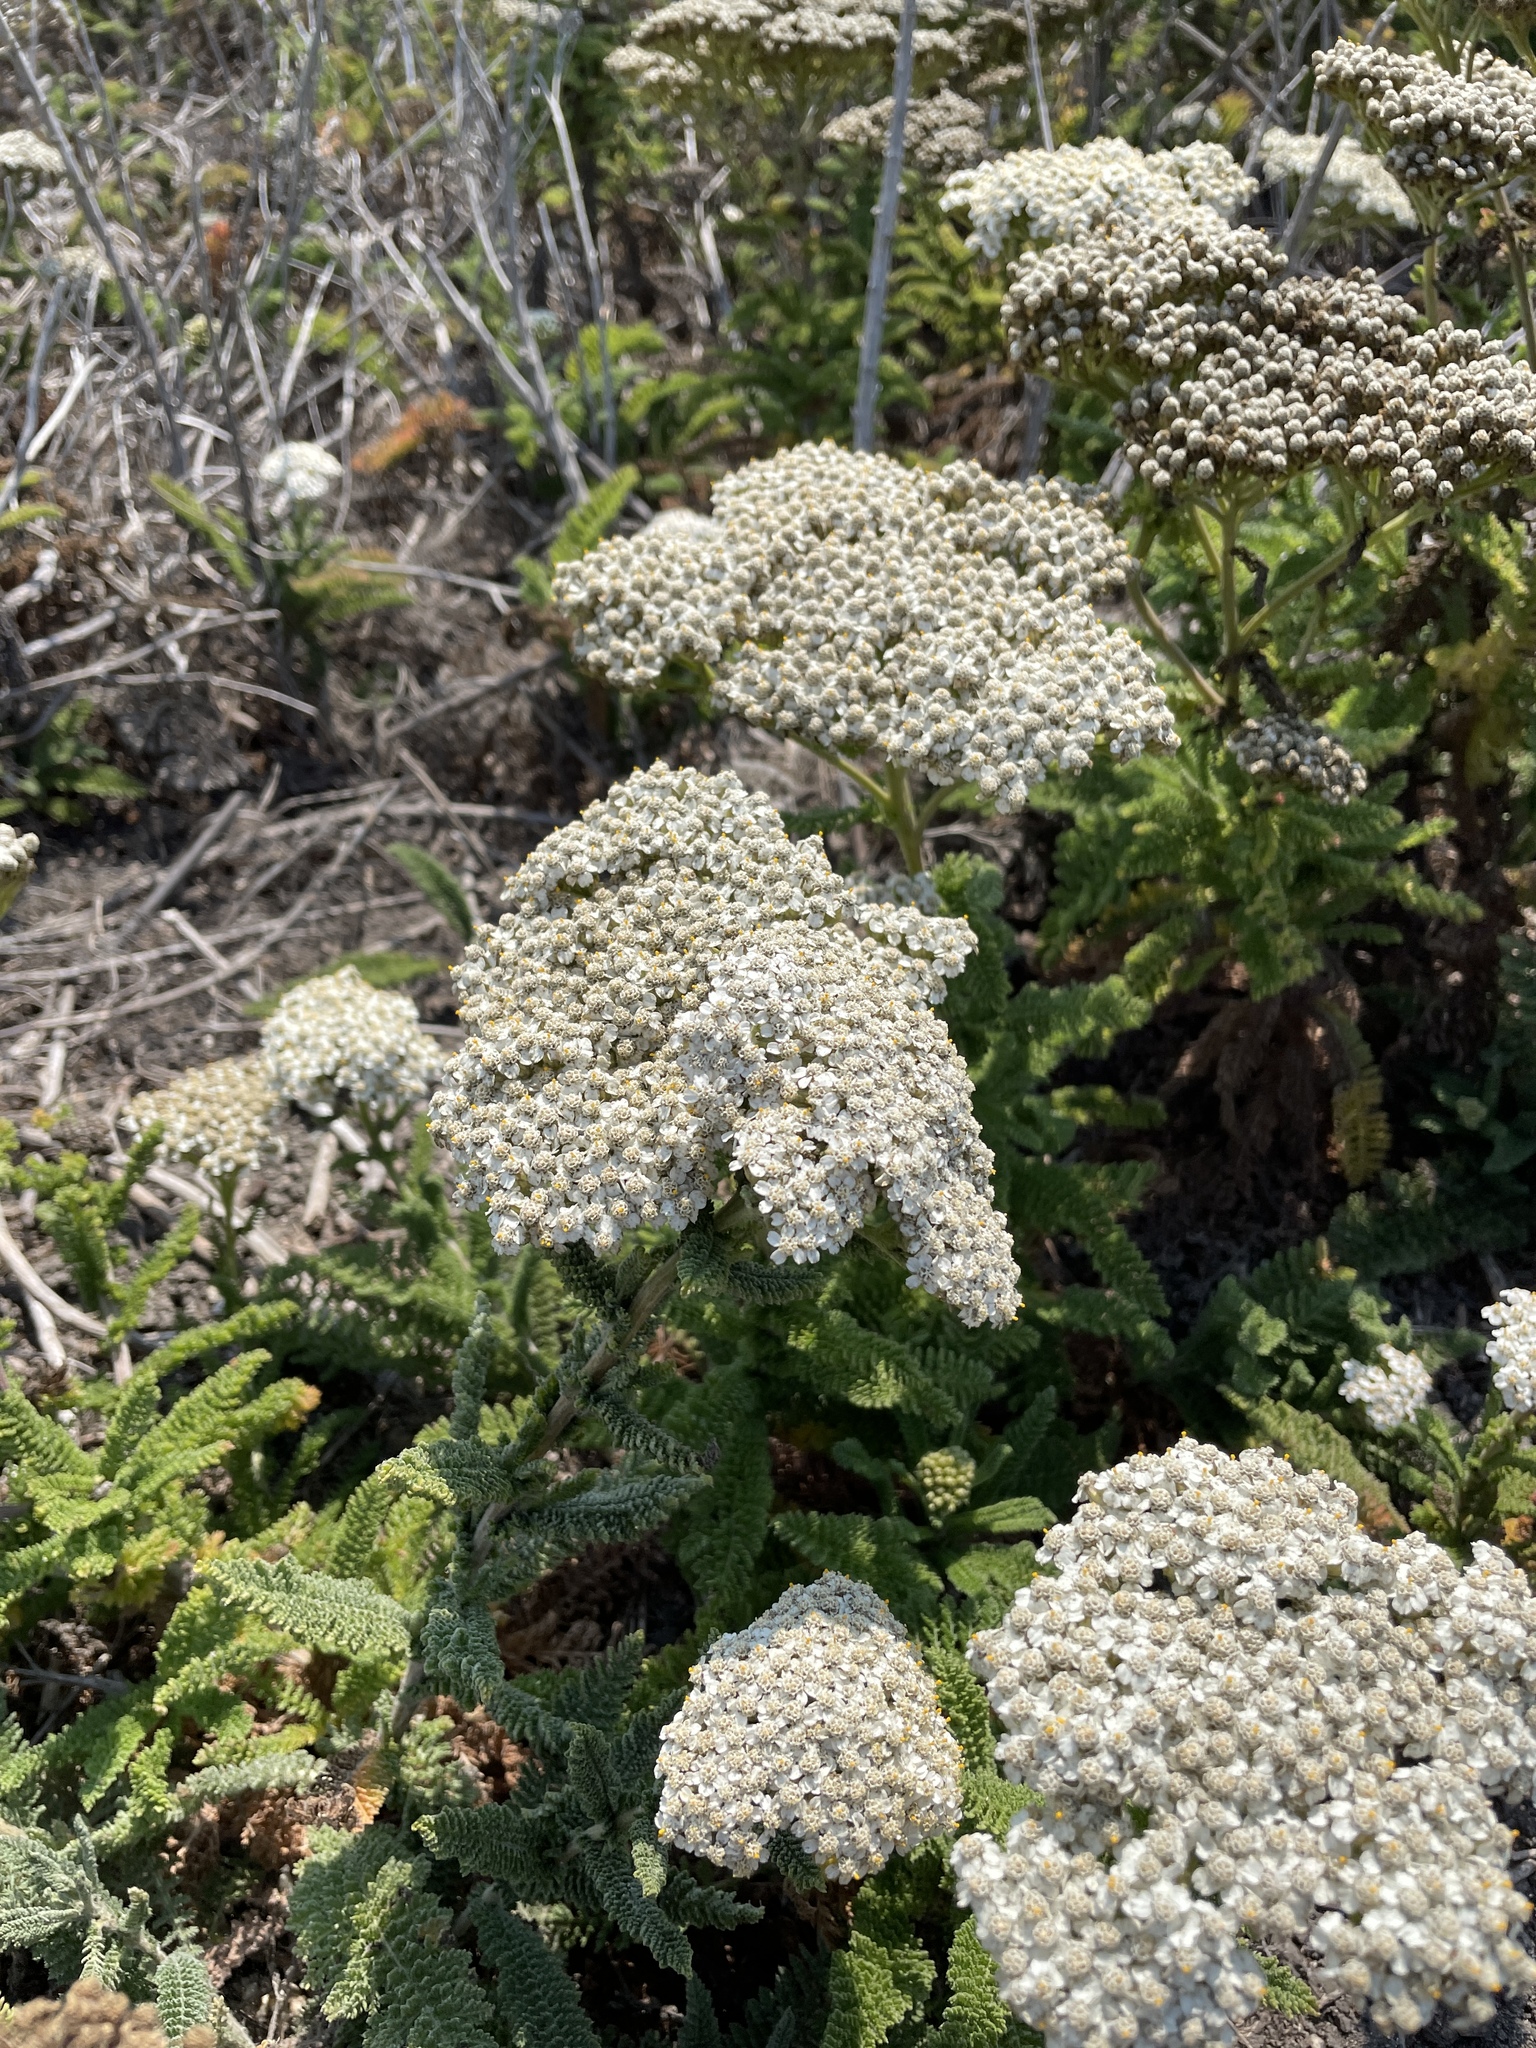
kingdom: Plantae
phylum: Tracheophyta
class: Magnoliopsida
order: Asterales
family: Asteraceae
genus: Achillea
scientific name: Achillea millefolium
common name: Yarrow
